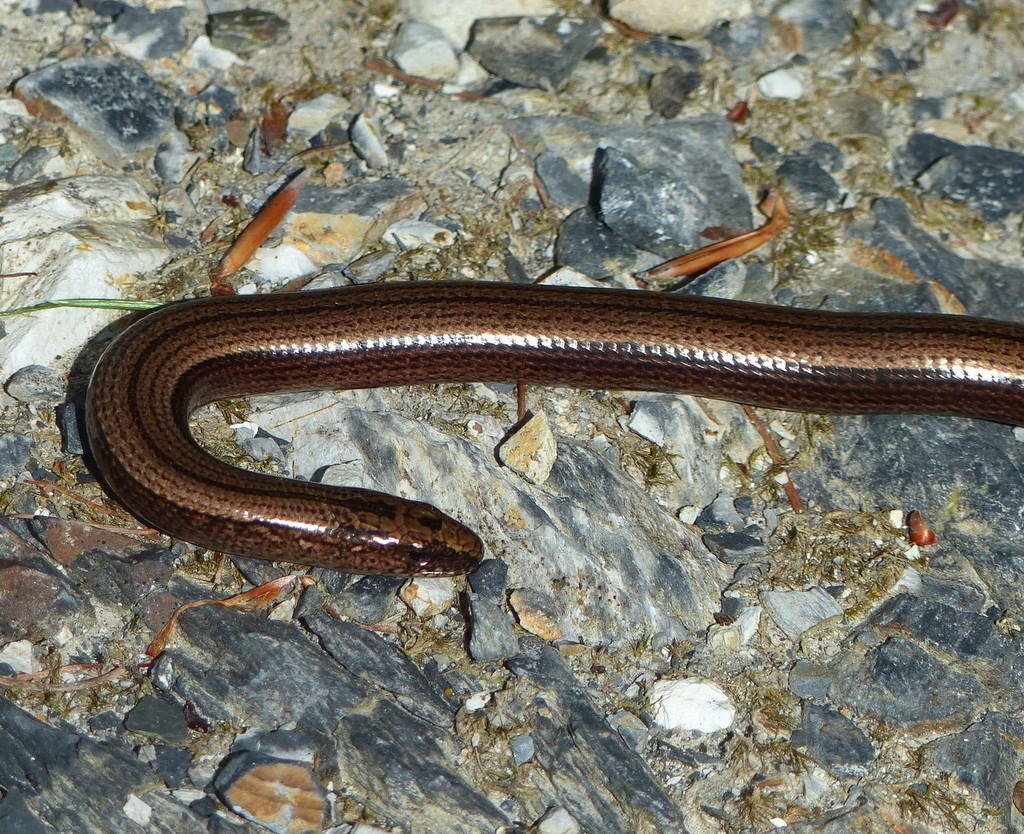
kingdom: Animalia
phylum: Chordata
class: Squamata
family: Anguidae
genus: Anguis
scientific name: Anguis fragilis
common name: Slow worm
